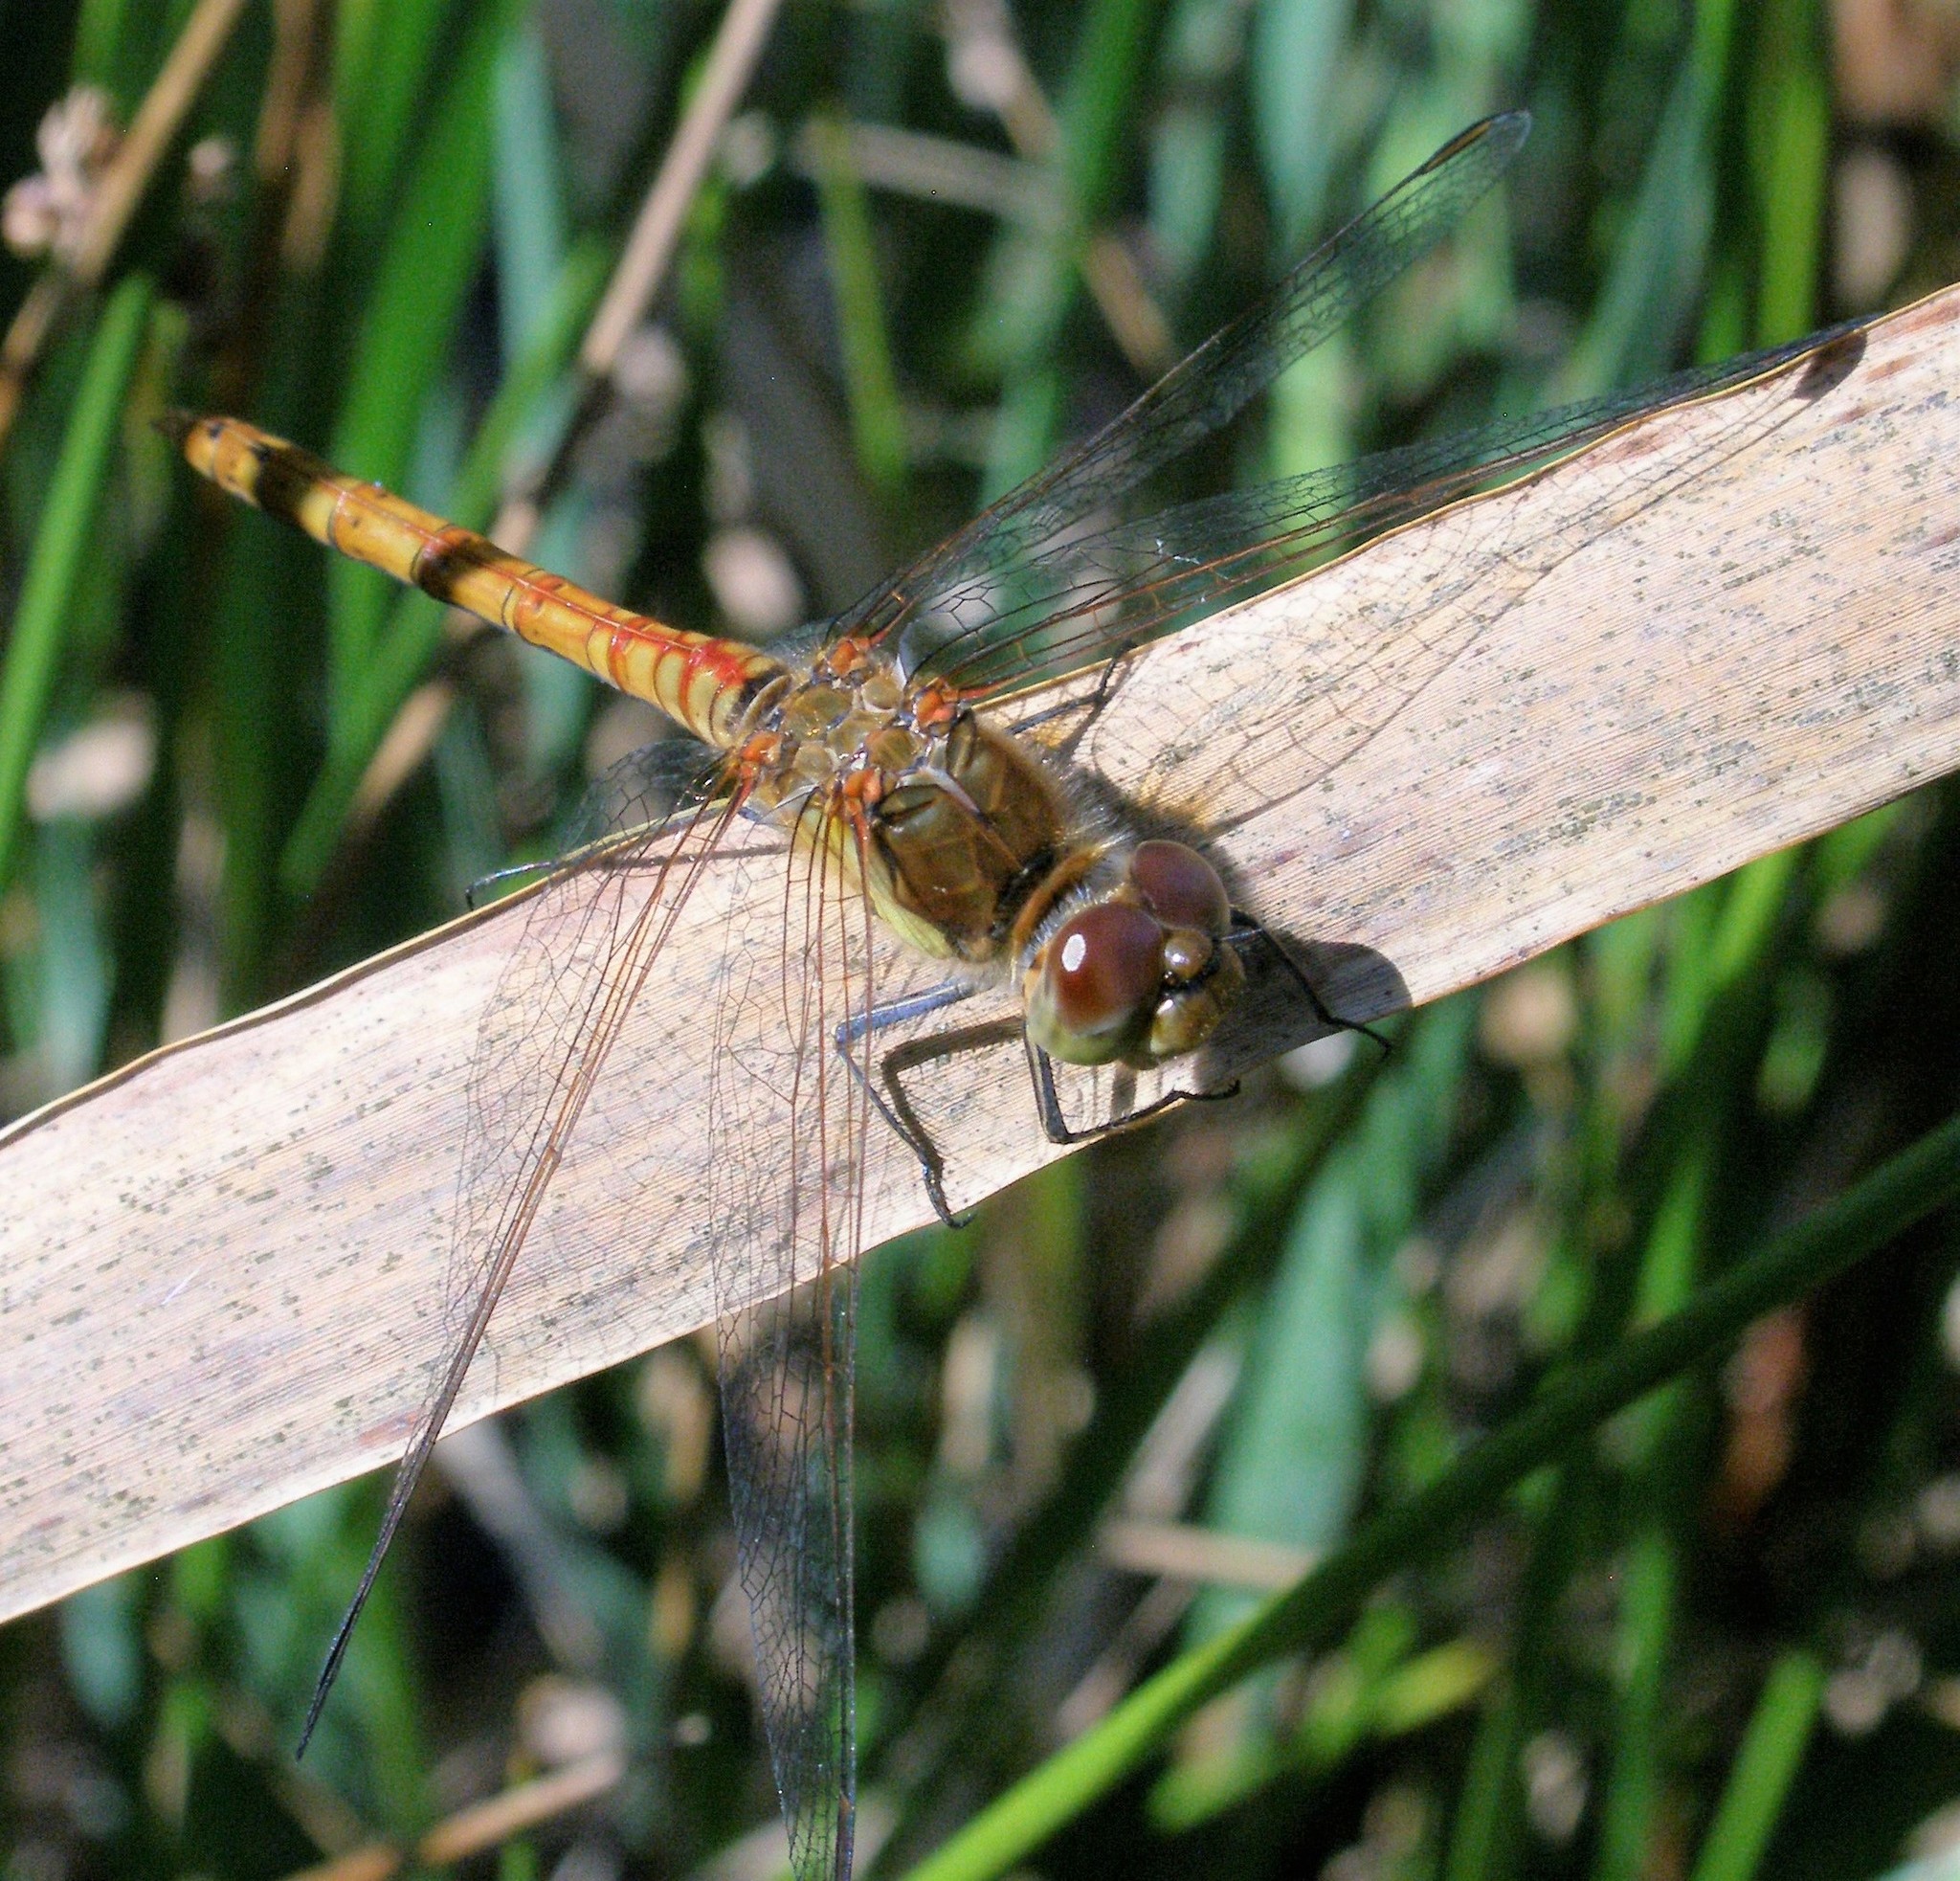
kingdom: Animalia
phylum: Arthropoda
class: Insecta
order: Odonata
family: Libellulidae
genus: Sympetrum
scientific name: Sympetrum striolatum
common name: Common darter
